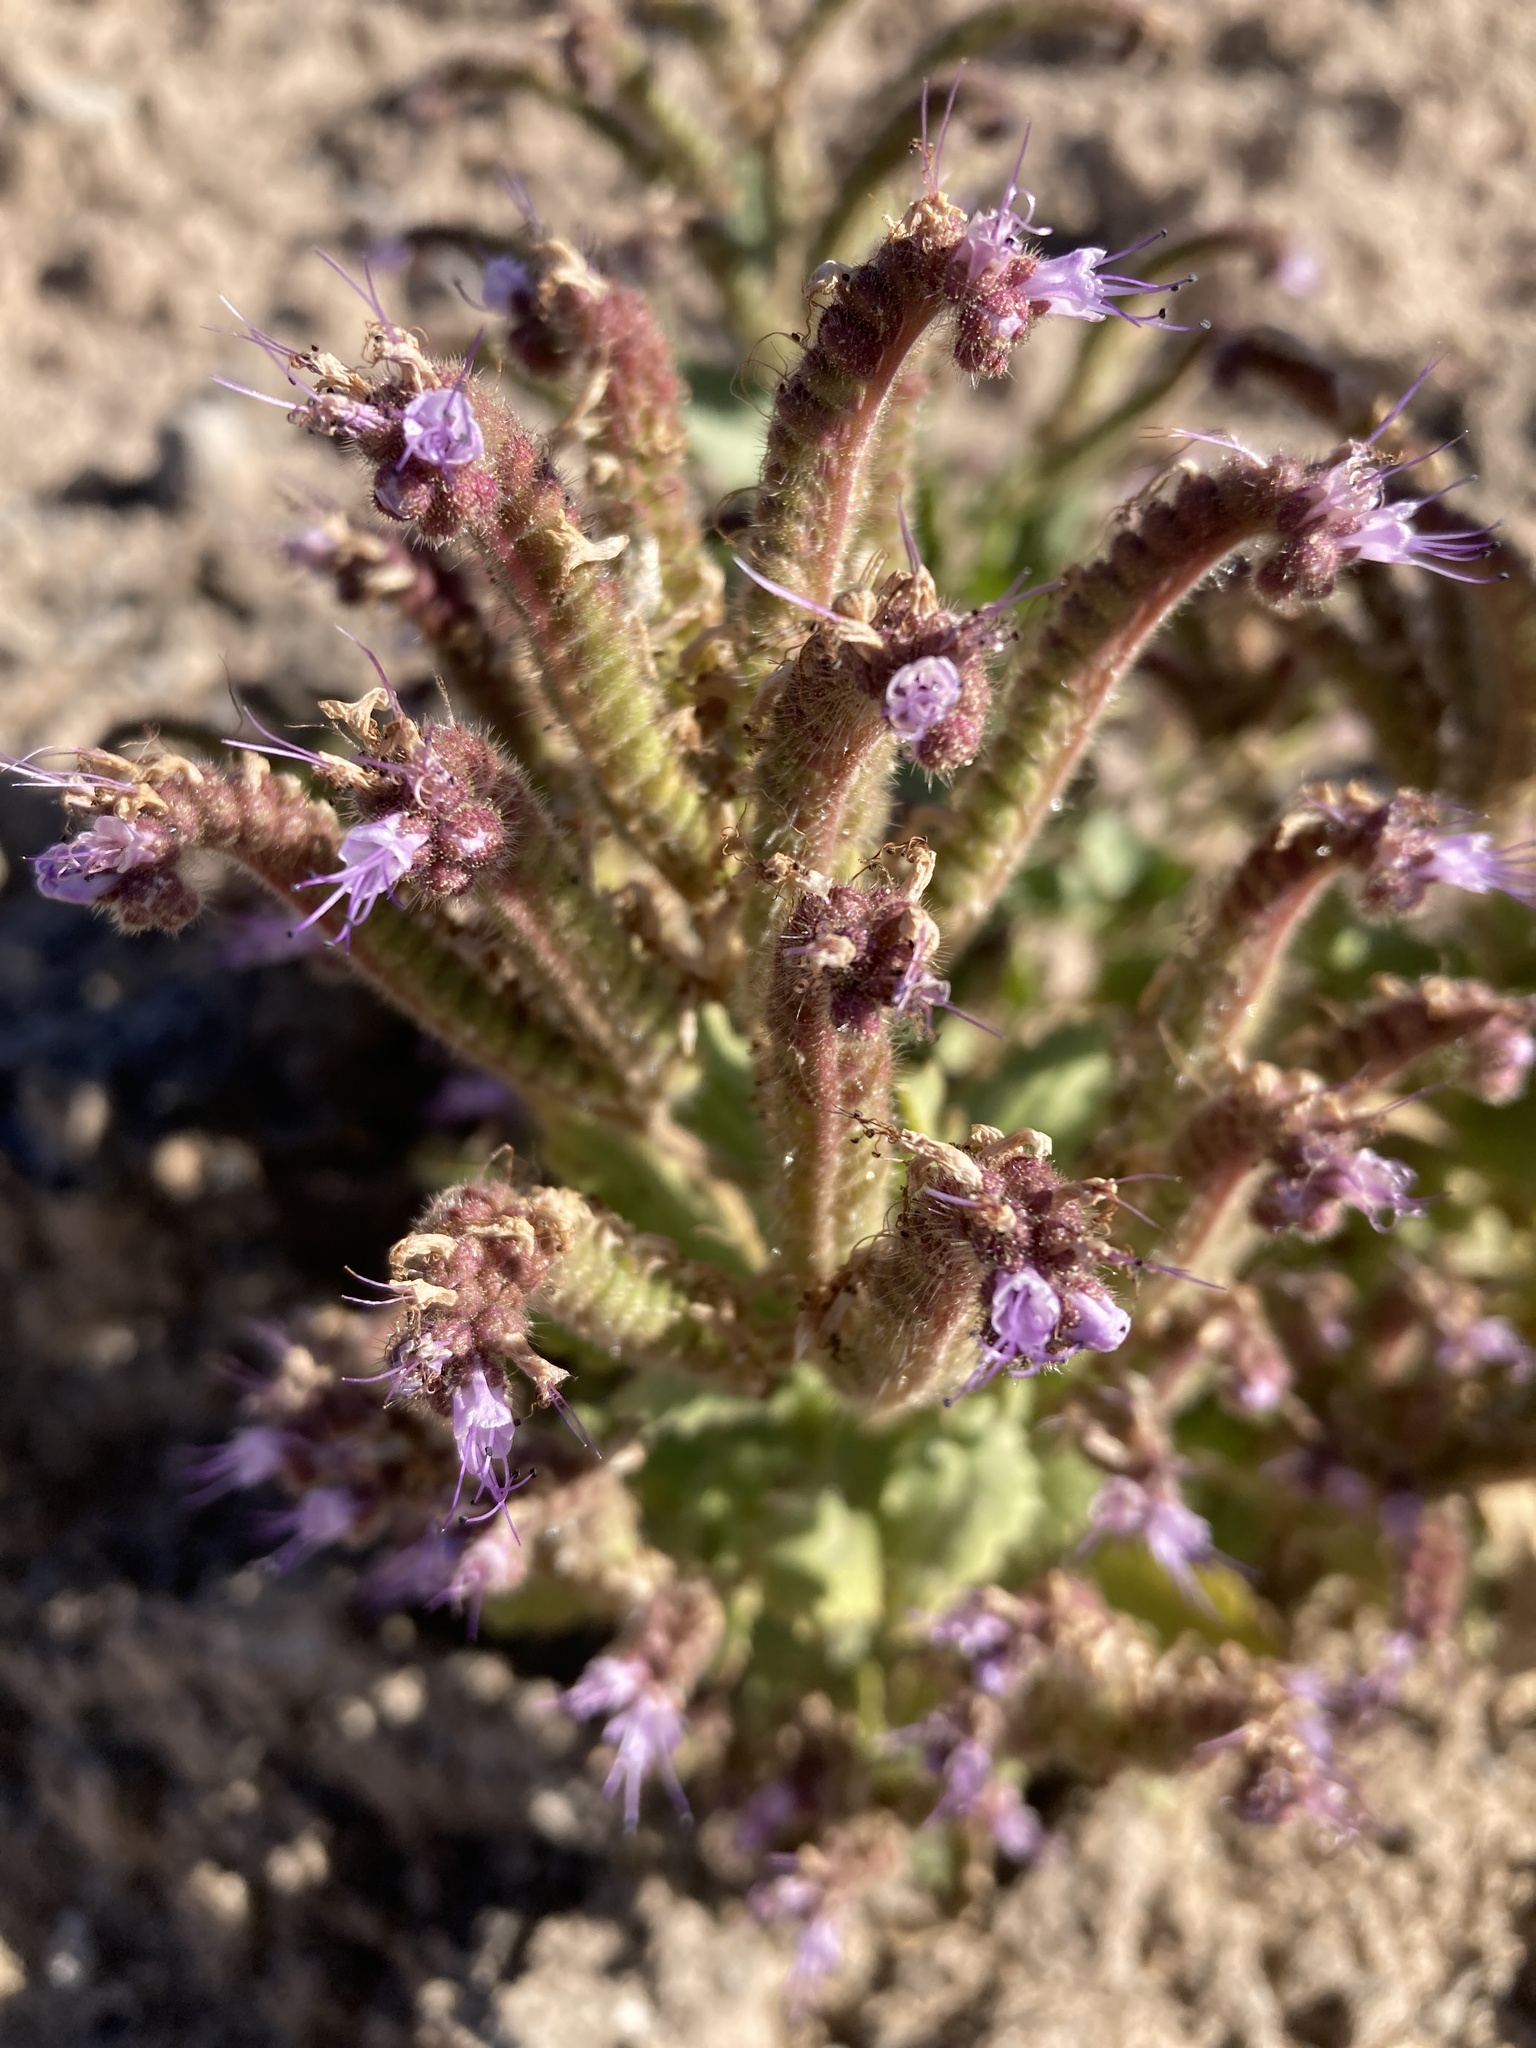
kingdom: Plantae
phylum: Tracheophyta
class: Magnoliopsida
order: Boraginales
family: Hydrophyllaceae
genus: Phacelia
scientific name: Phacelia sivinskii
